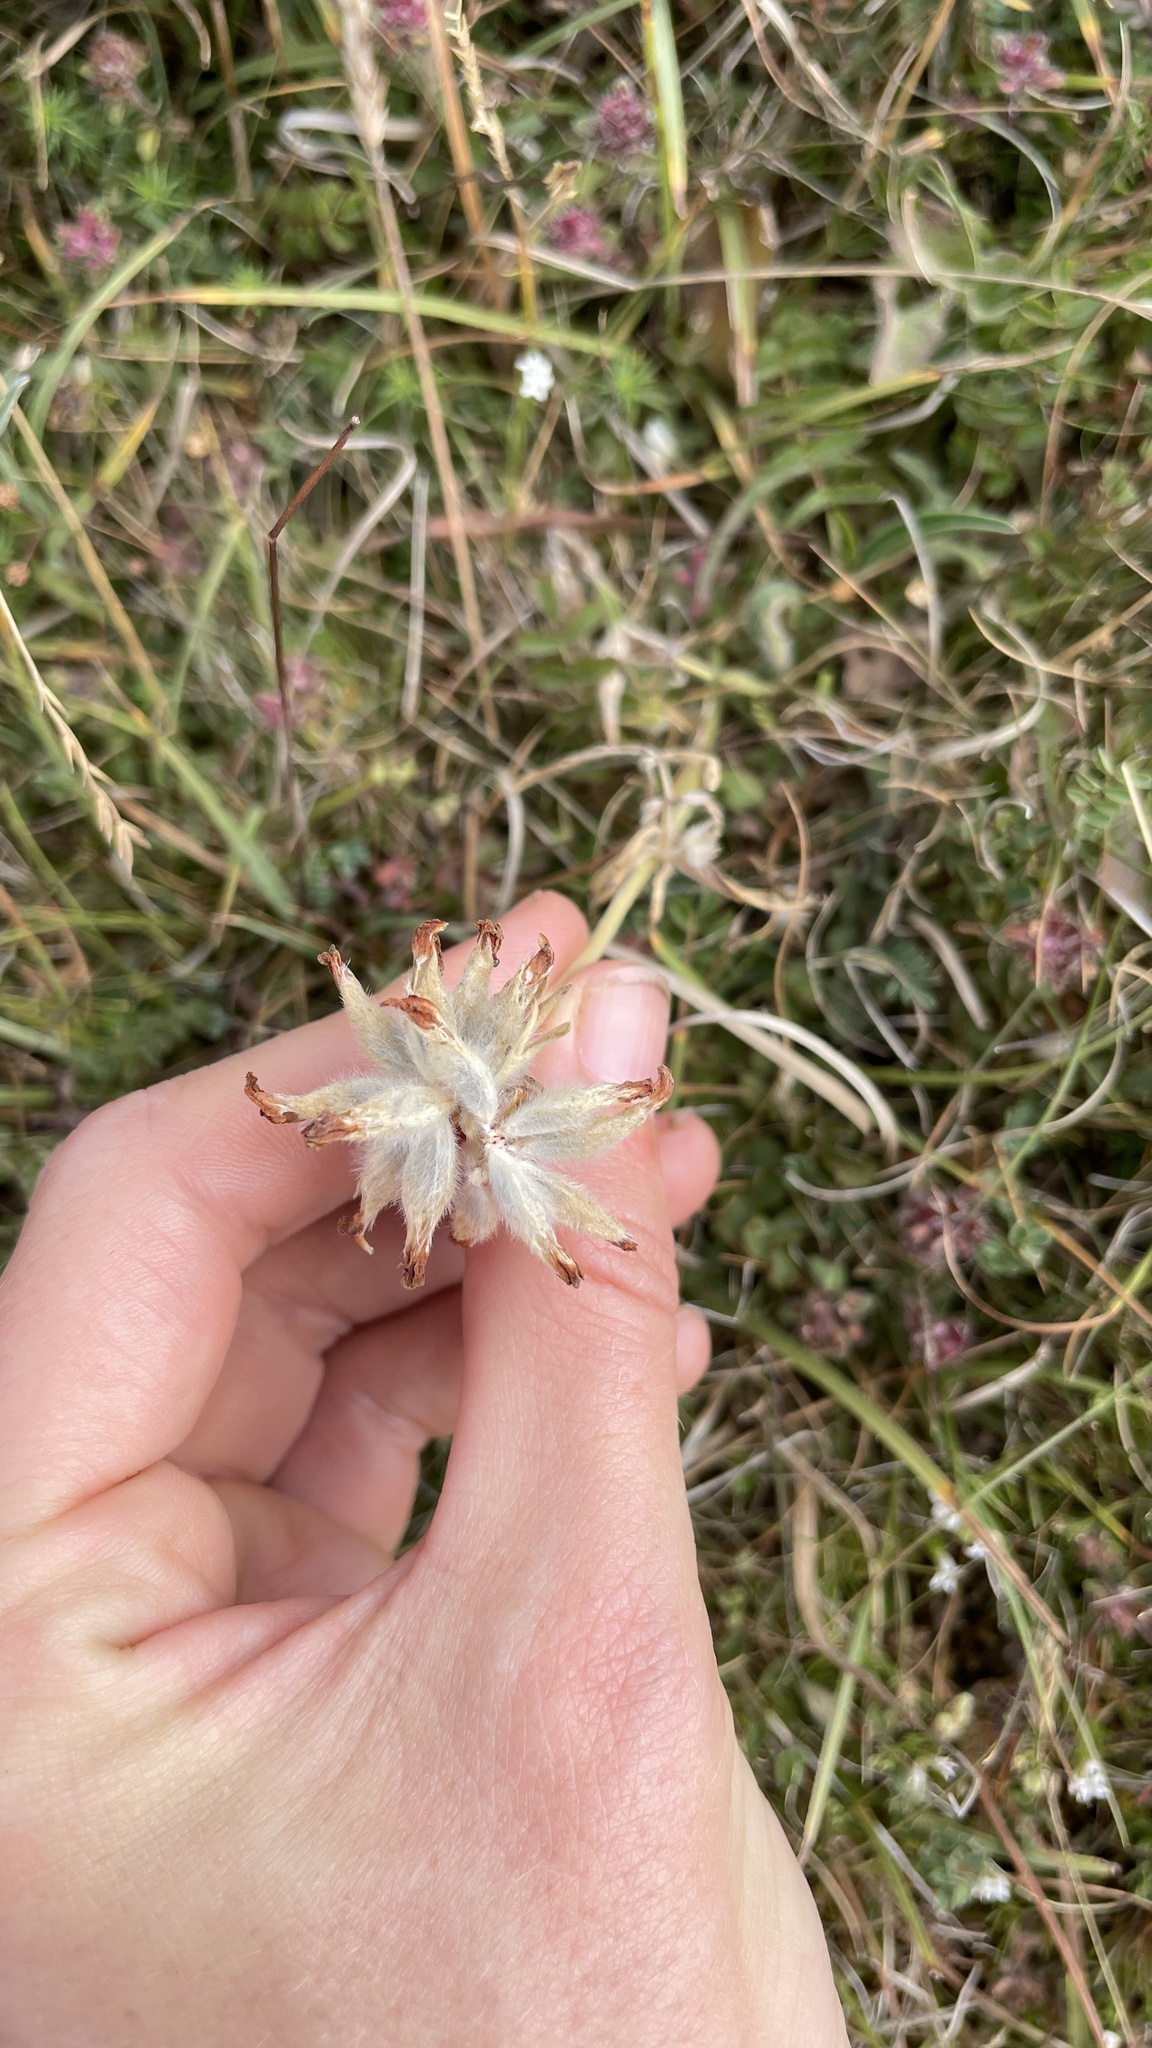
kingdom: Plantae
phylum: Tracheophyta
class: Magnoliopsida
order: Fabales
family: Fabaceae
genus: Anthyllis
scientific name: Anthyllis vulneraria
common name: Kidney vetch
